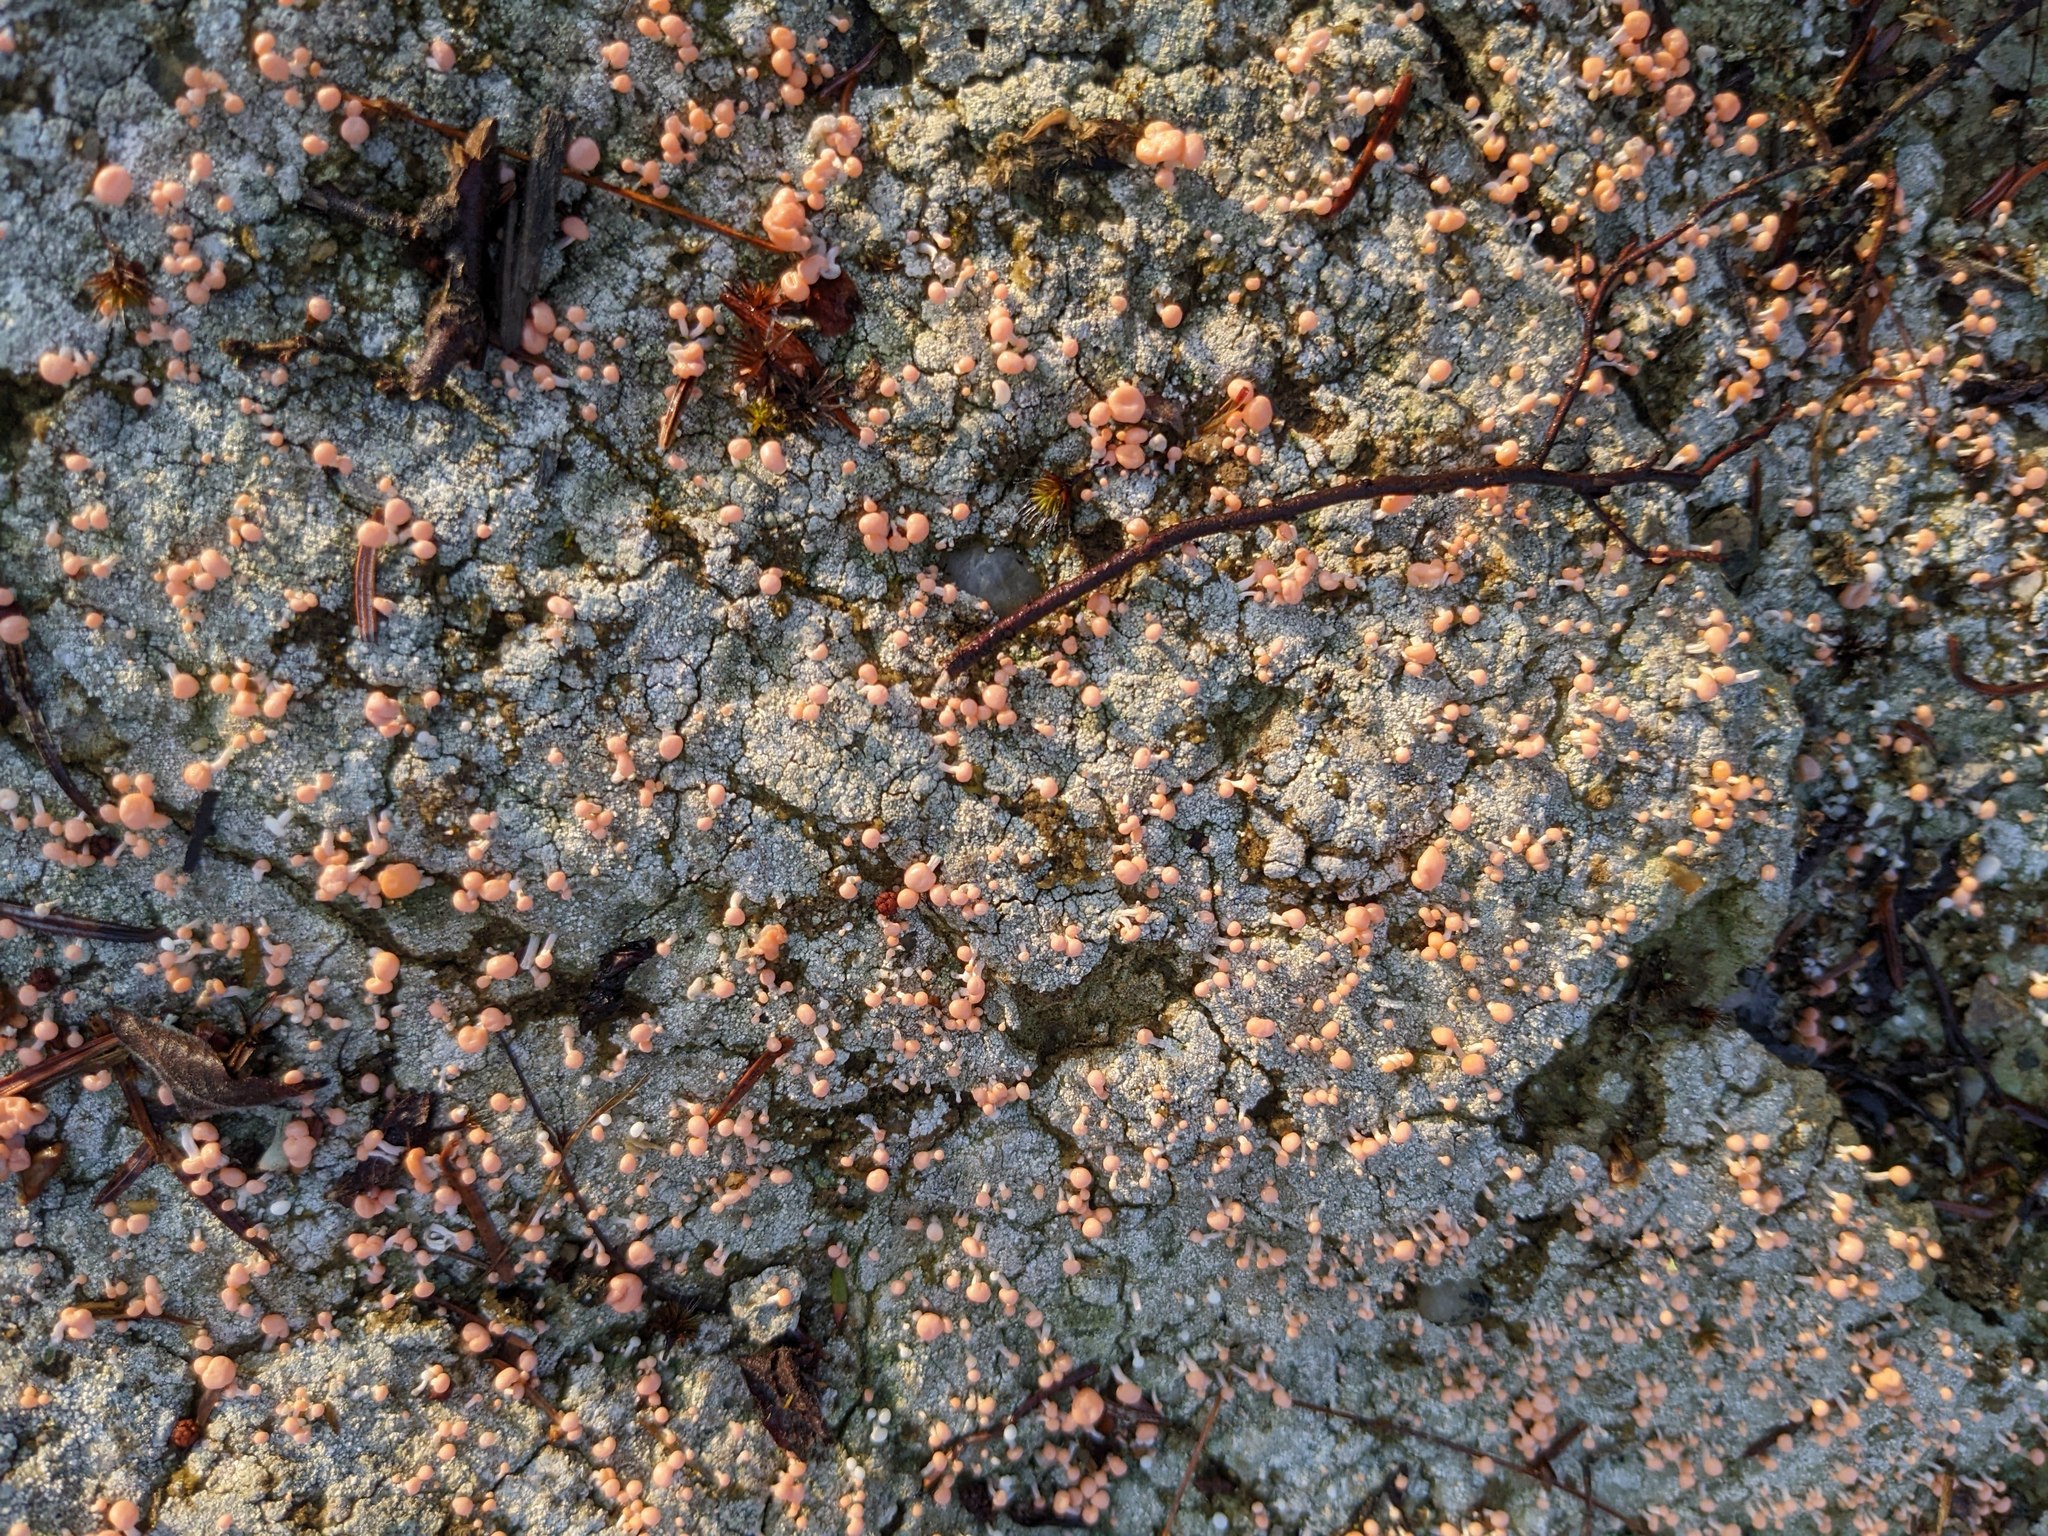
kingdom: Fungi
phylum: Ascomycota
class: Lecanoromycetes
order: Pertusariales
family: Icmadophilaceae
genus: Dibaeis
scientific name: Dibaeis baeomyces
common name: Pink earth lichen
